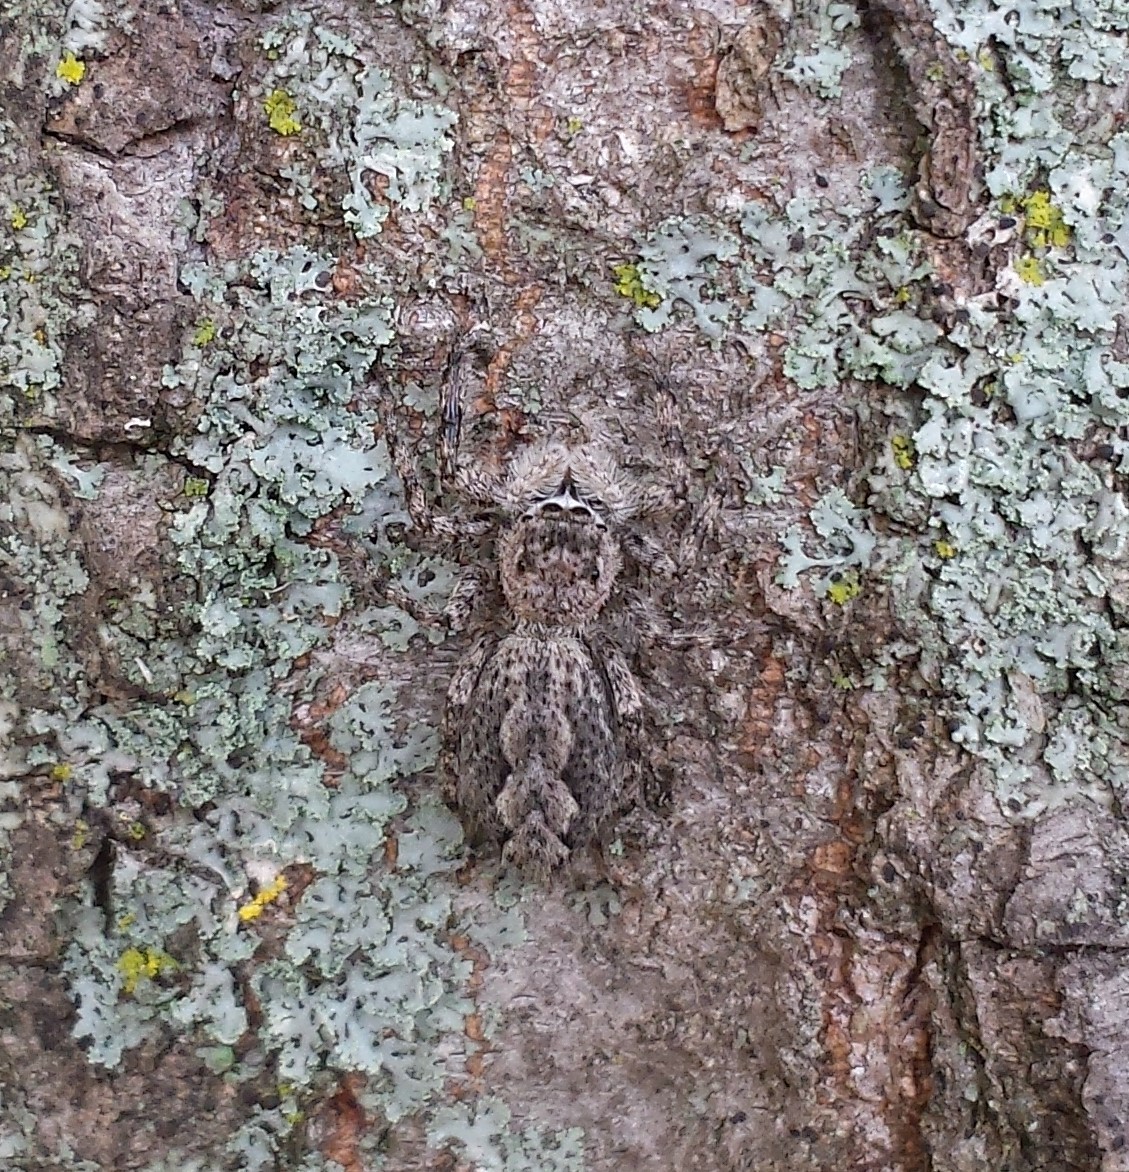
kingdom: Animalia
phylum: Arthropoda
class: Arachnida
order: Araneae
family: Salticidae
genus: Platycryptus
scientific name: Platycryptus undatus
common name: Tan jumping spider
